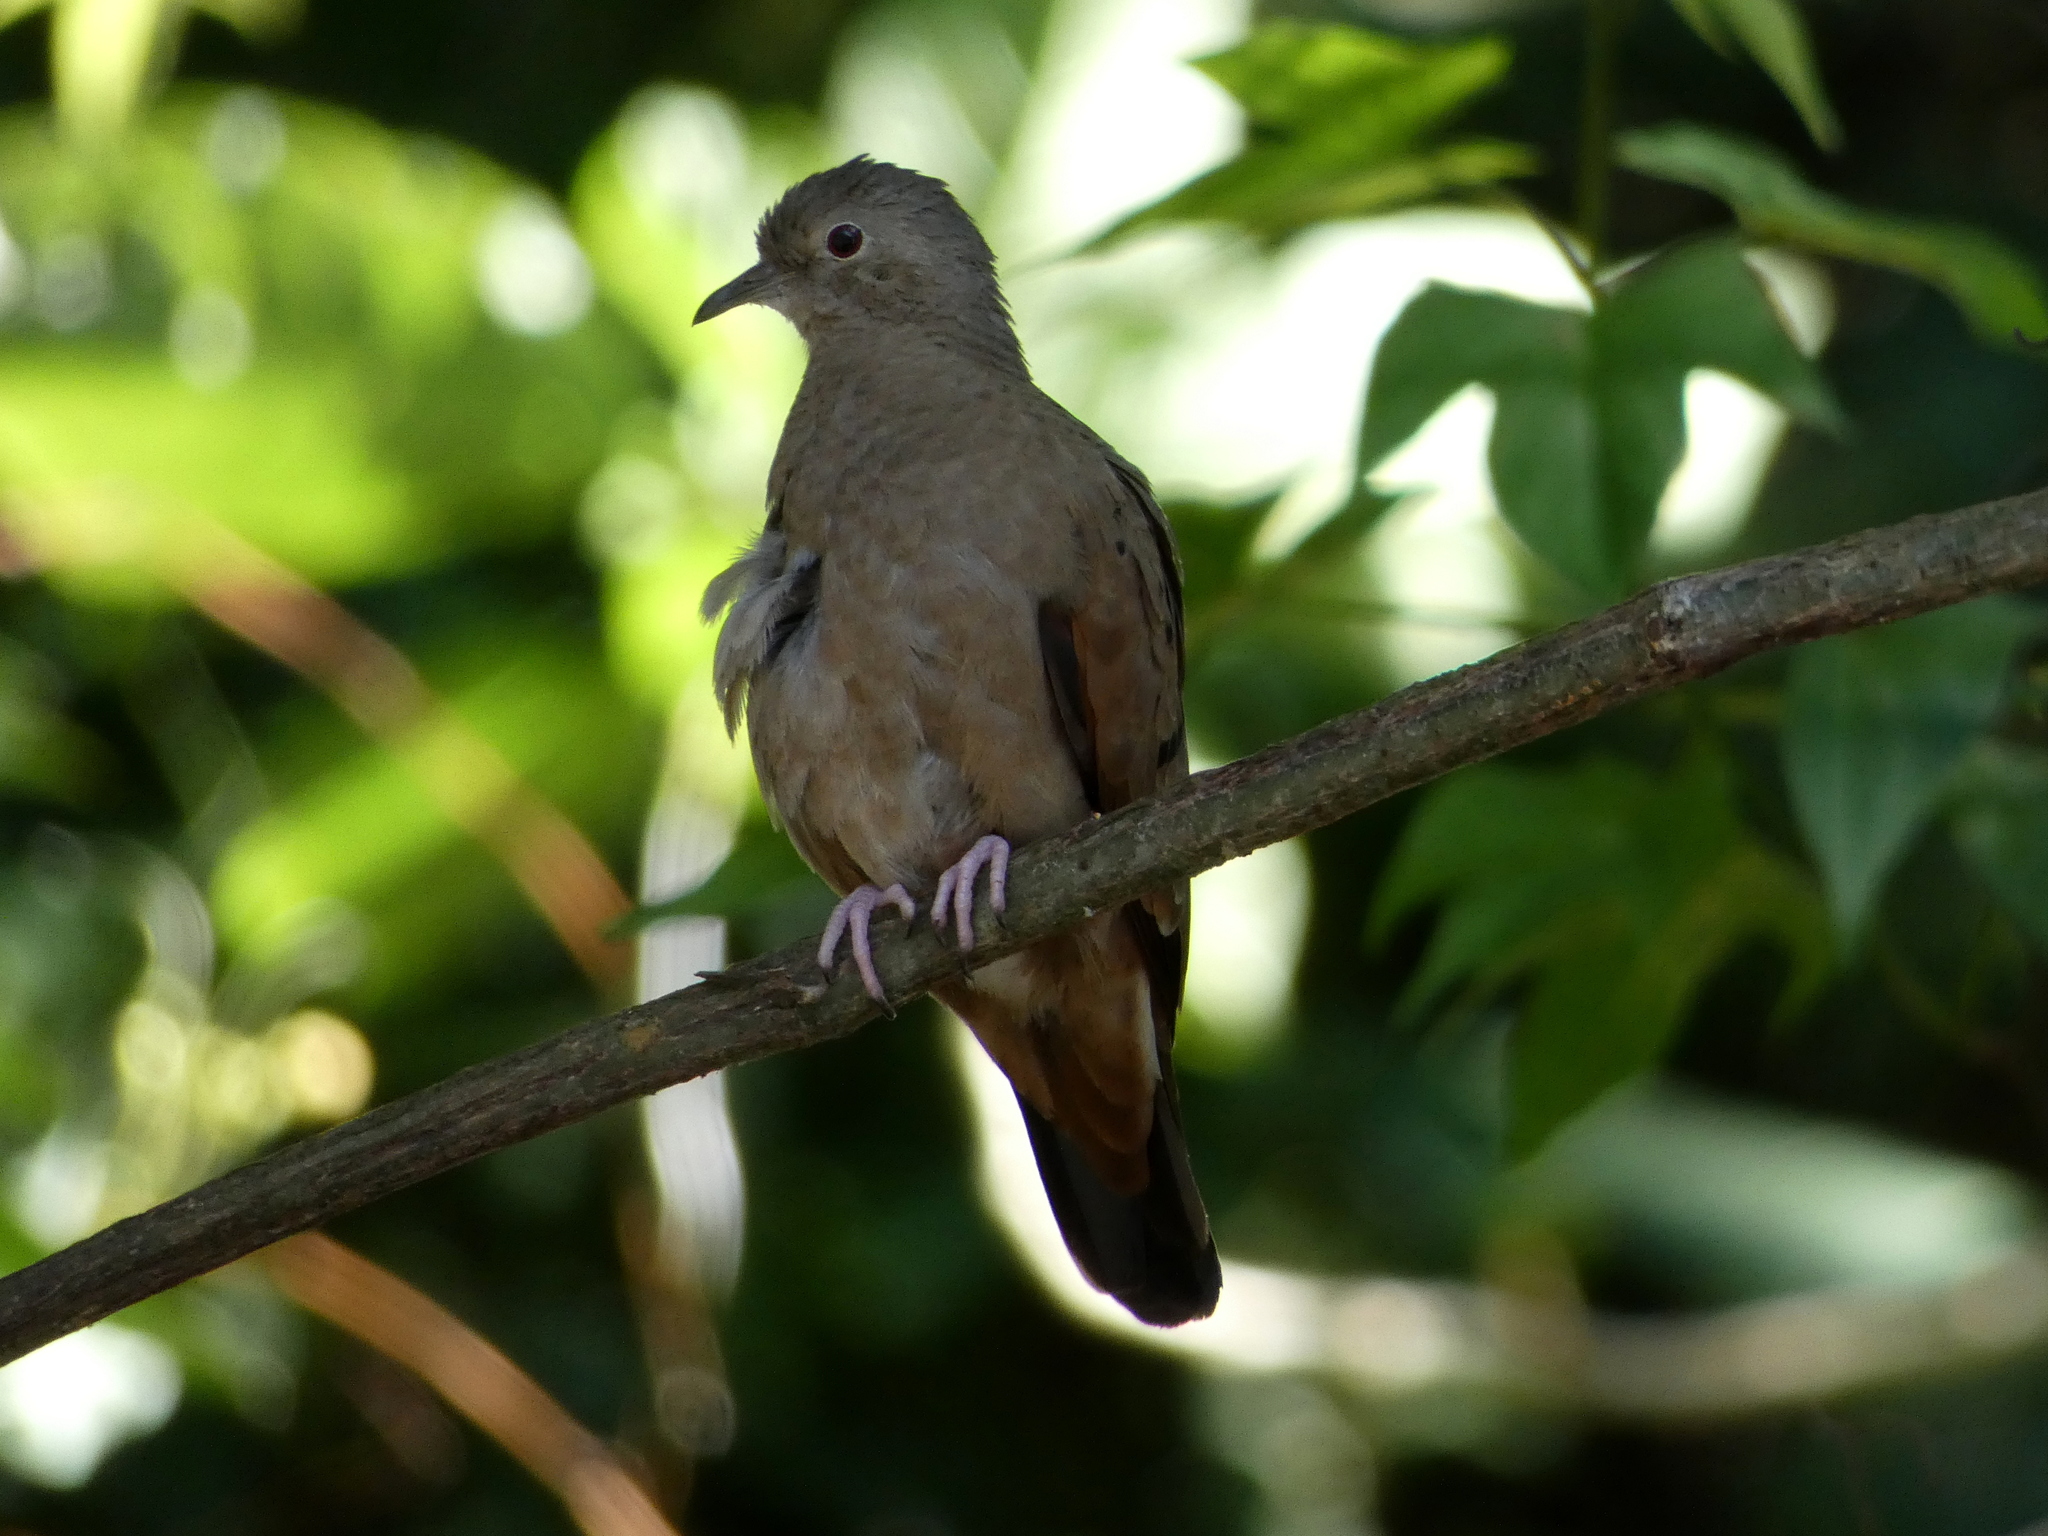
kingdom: Animalia
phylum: Chordata
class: Aves
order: Columbiformes
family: Columbidae
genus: Columbina
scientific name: Columbina talpacoti
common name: Ruddy ground dove
